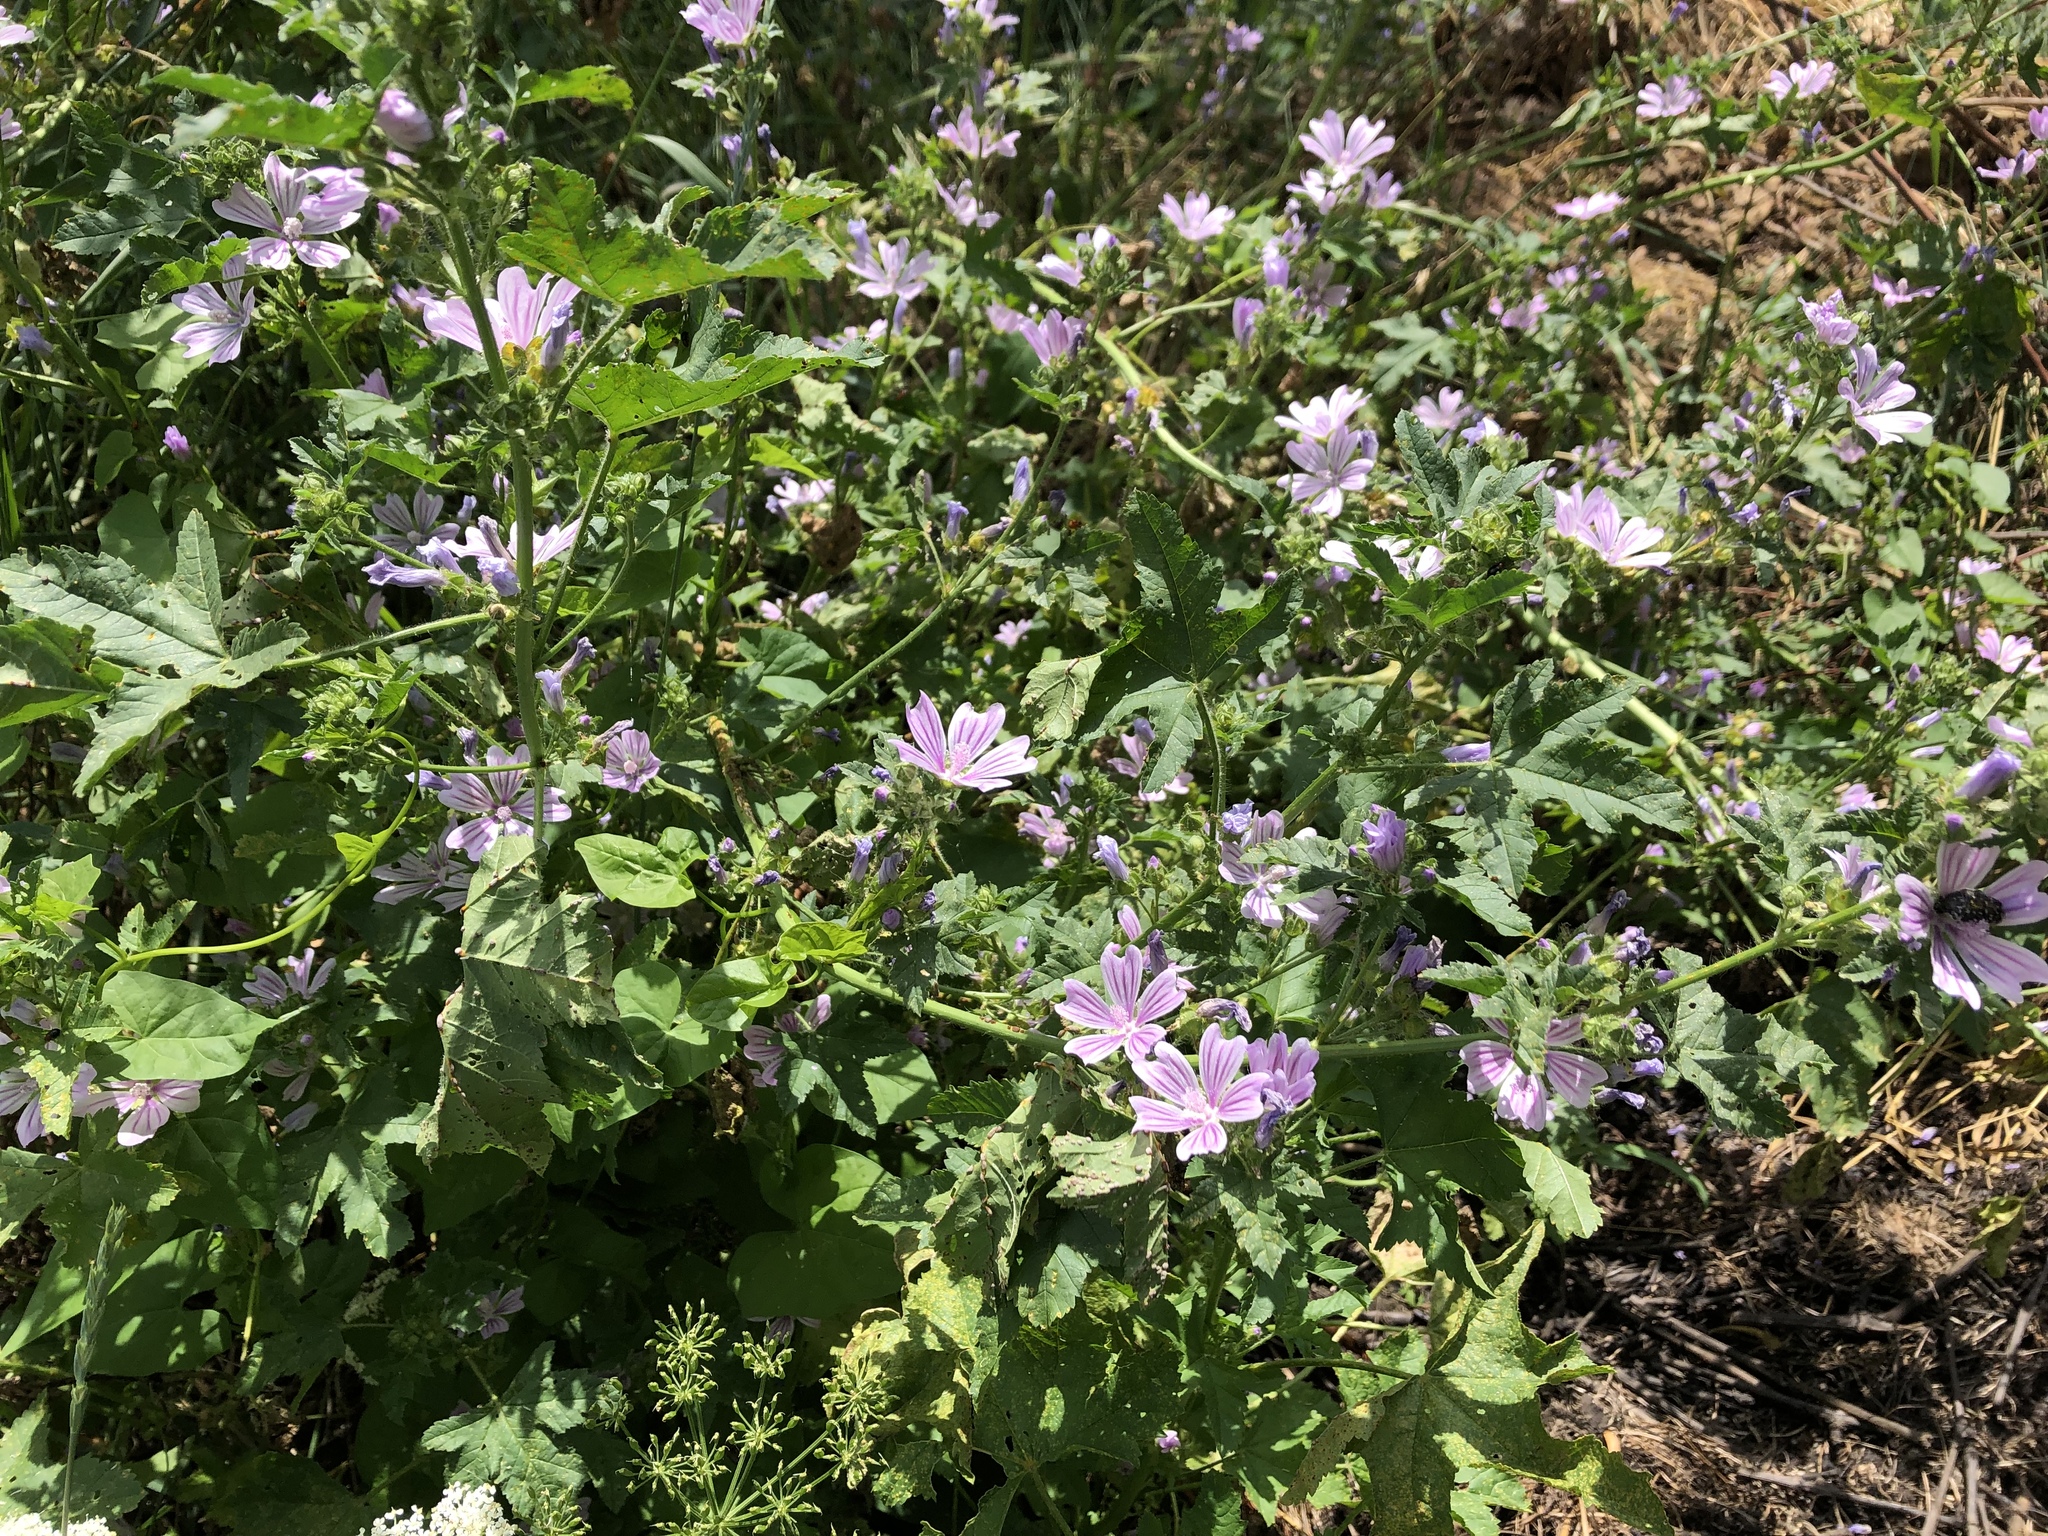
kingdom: Plantae
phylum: Tracheophyta
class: Magnoliopsida
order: Malvales
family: Malvaceae
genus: Malva
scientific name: Malva sylvestris
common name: Common mallow
